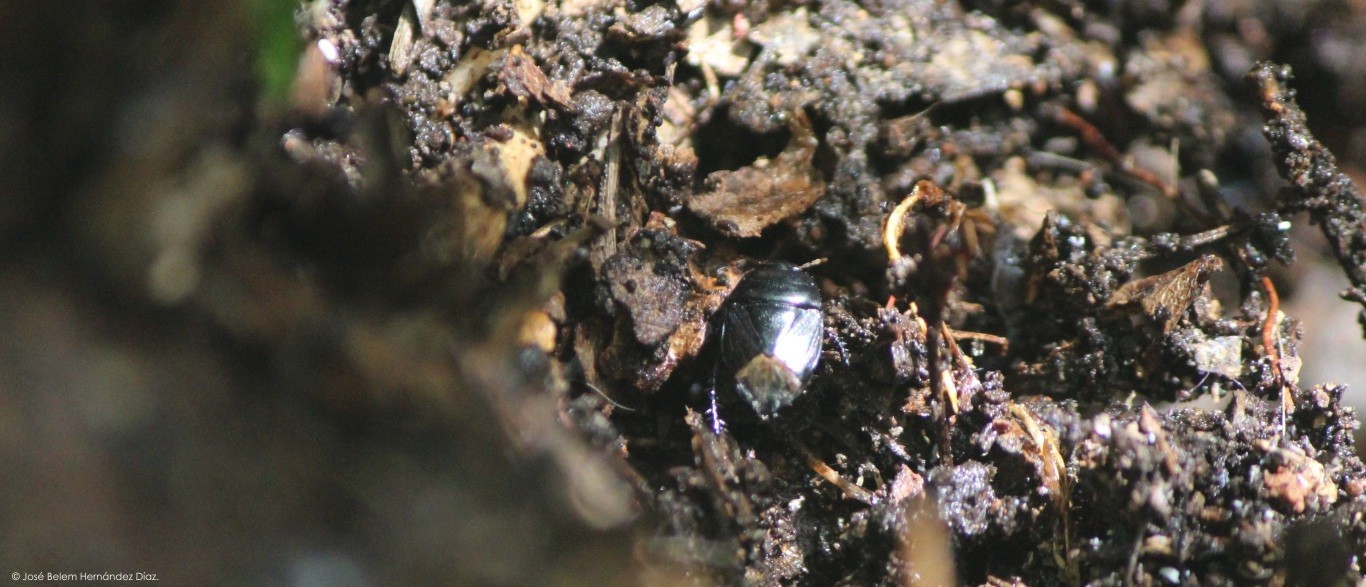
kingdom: Animalia
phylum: Arthropoda
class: Insecta
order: Hemiptera
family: Cydnidae
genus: Pangaeus
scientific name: Pangaeus bilineatus
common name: Burrower bug
